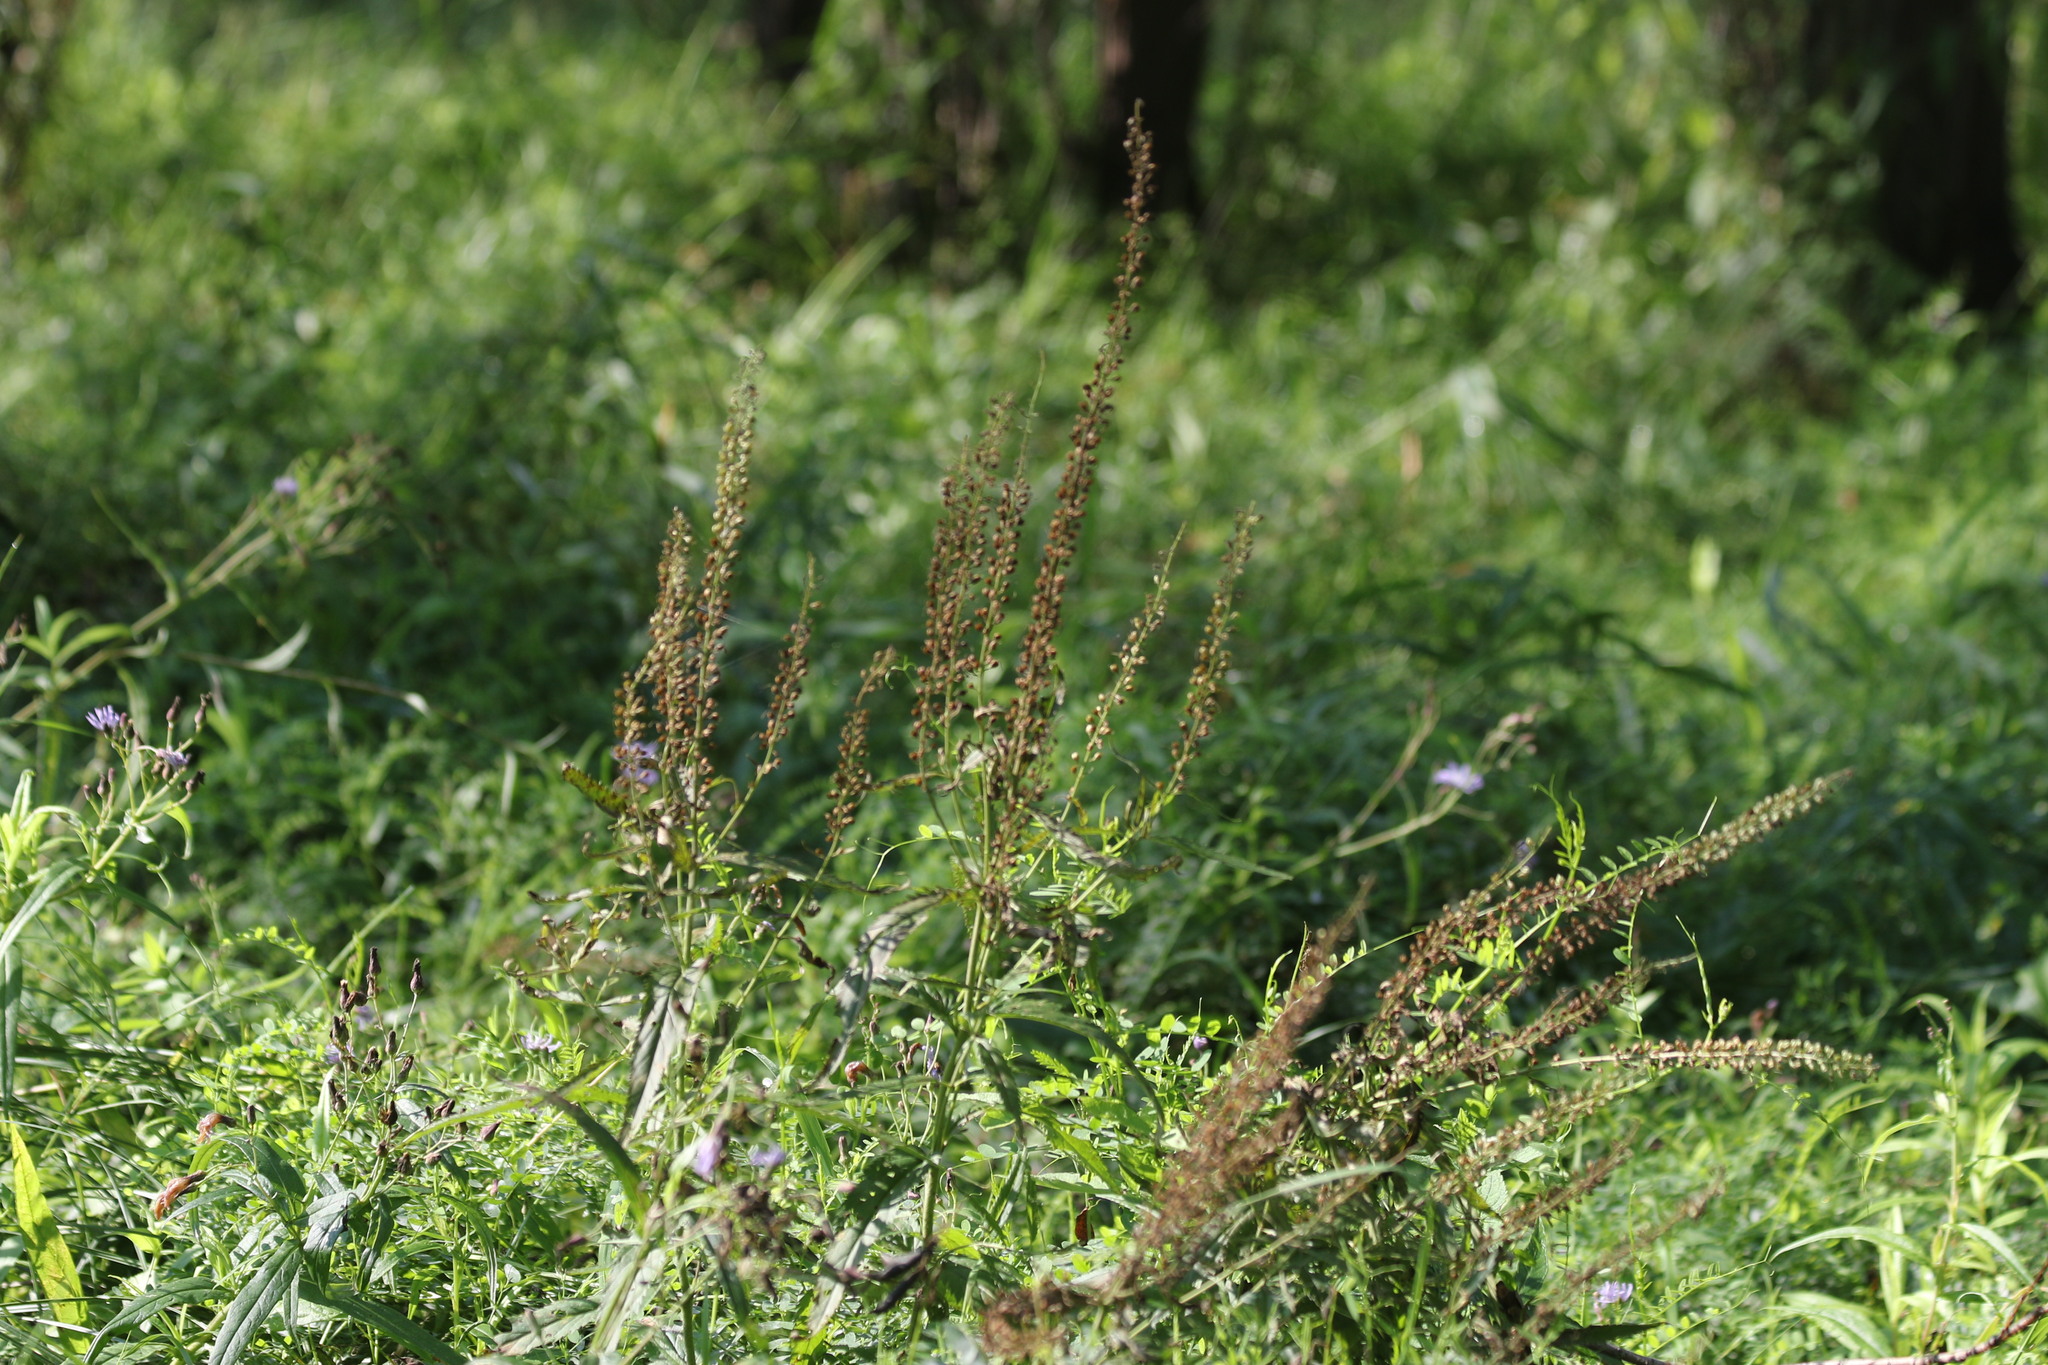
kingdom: Plantae
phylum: Tracheophyta
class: Magnoliopsida
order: Lamiales
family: Plantaginaceae
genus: Veronica
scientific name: Veronica longifolia
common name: Garden speedwell
